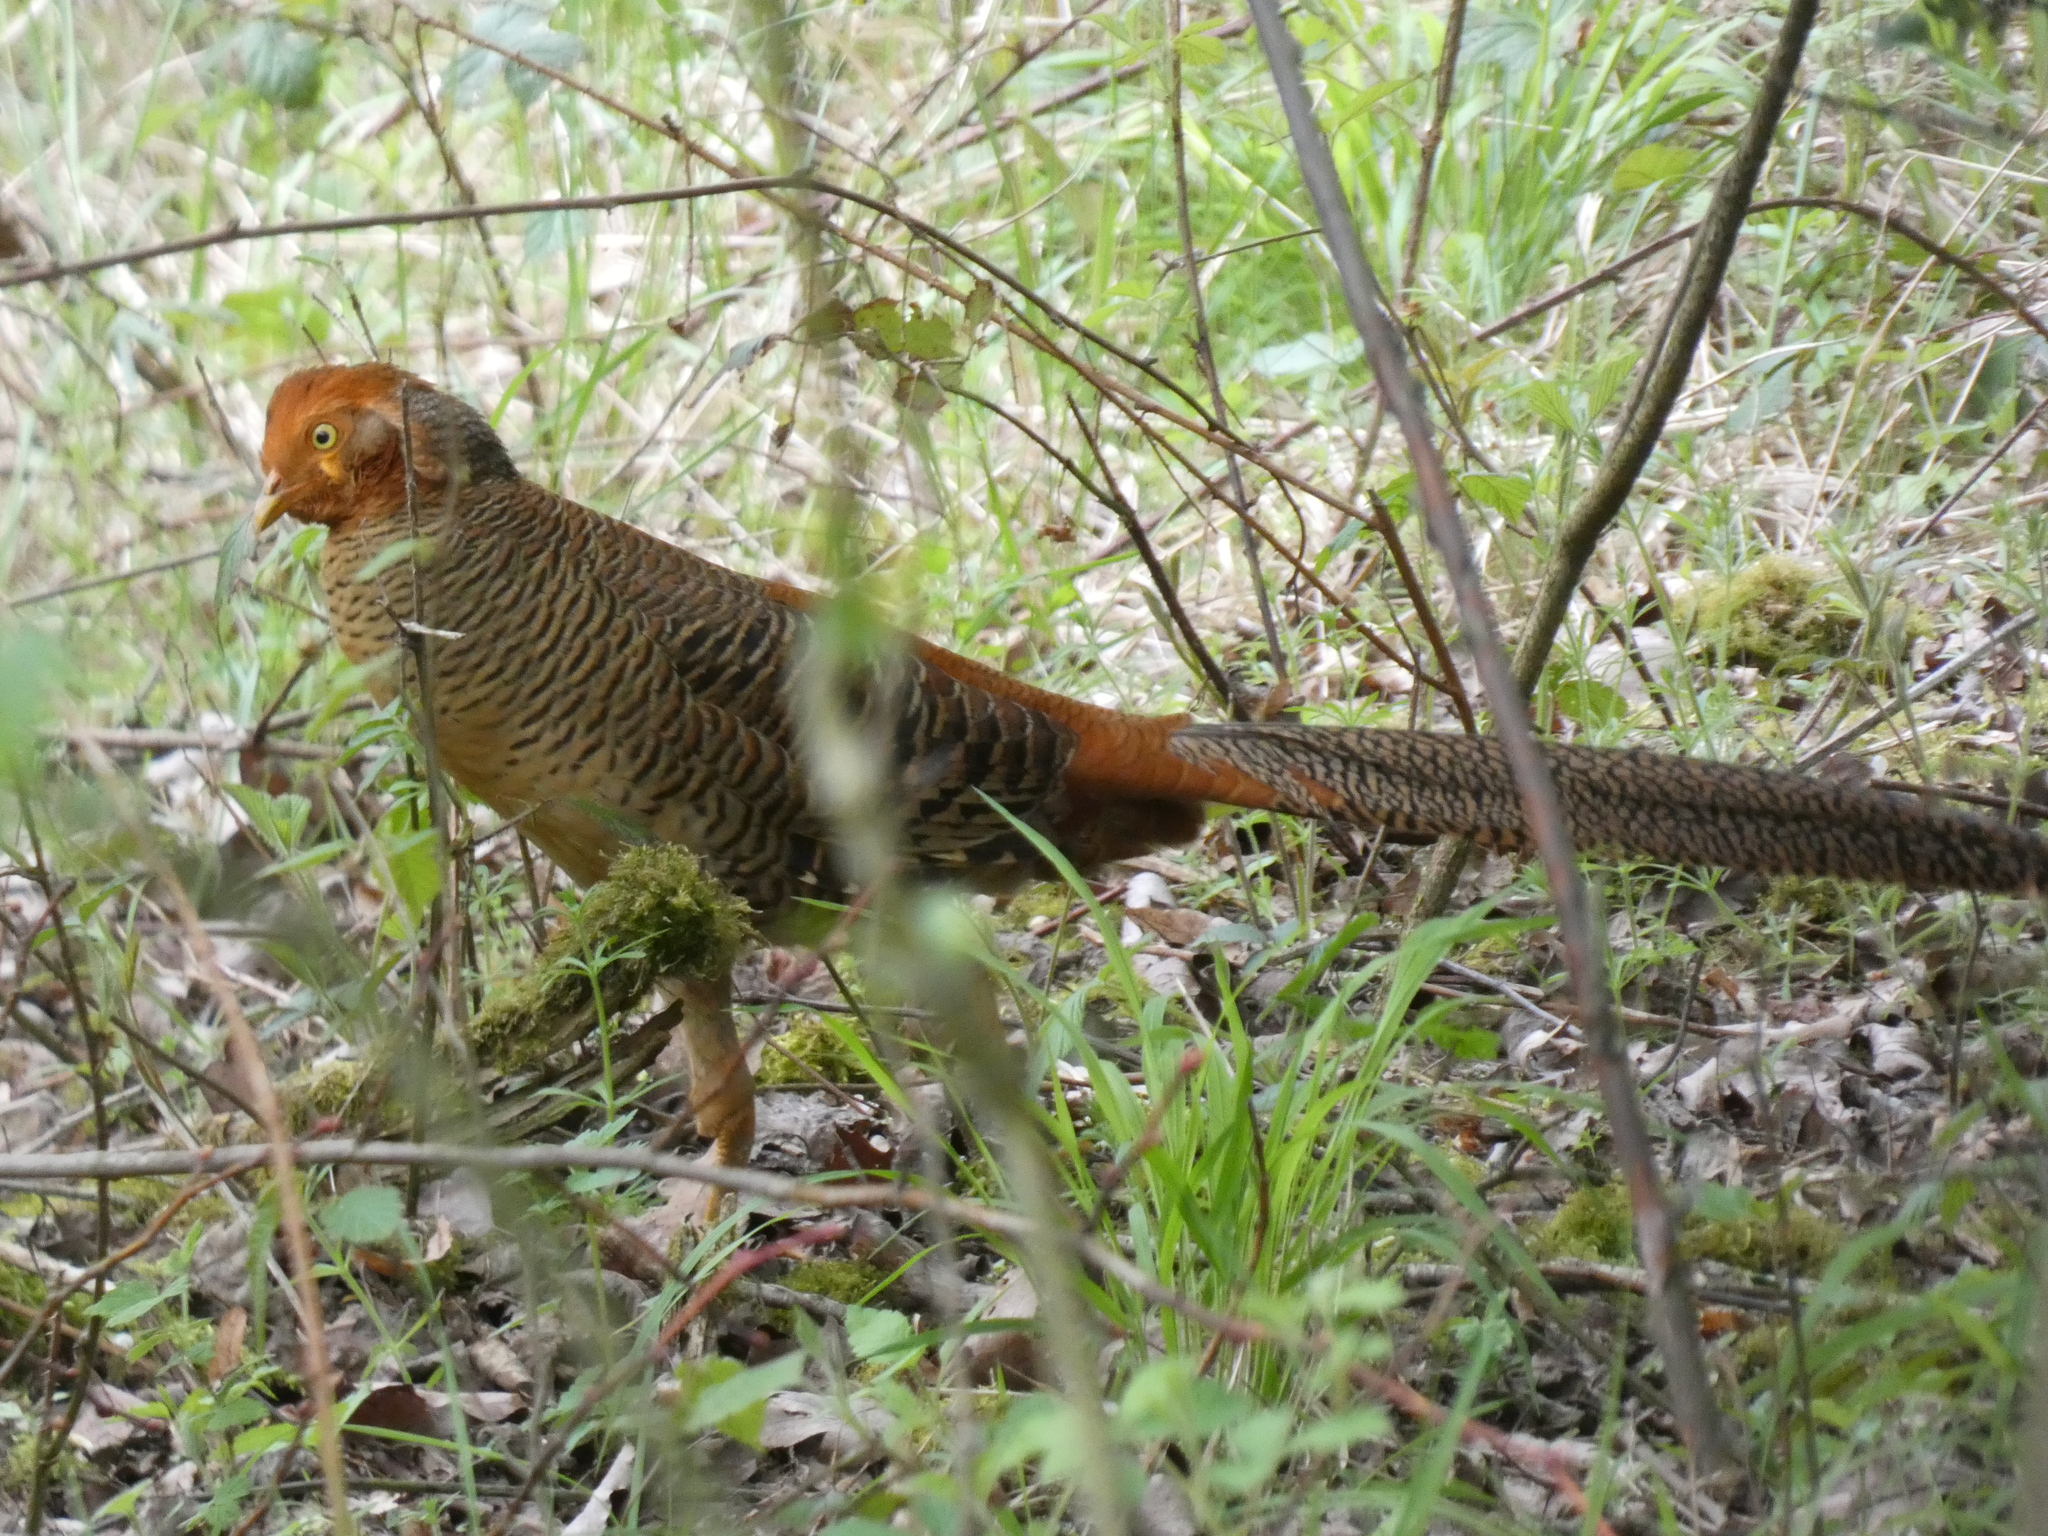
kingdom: Animalia
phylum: Chordata
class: Aves
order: Galliformes
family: Phasianidae
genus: Chrysolophus
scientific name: Chrysolophus pictus
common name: Golden pheasant
